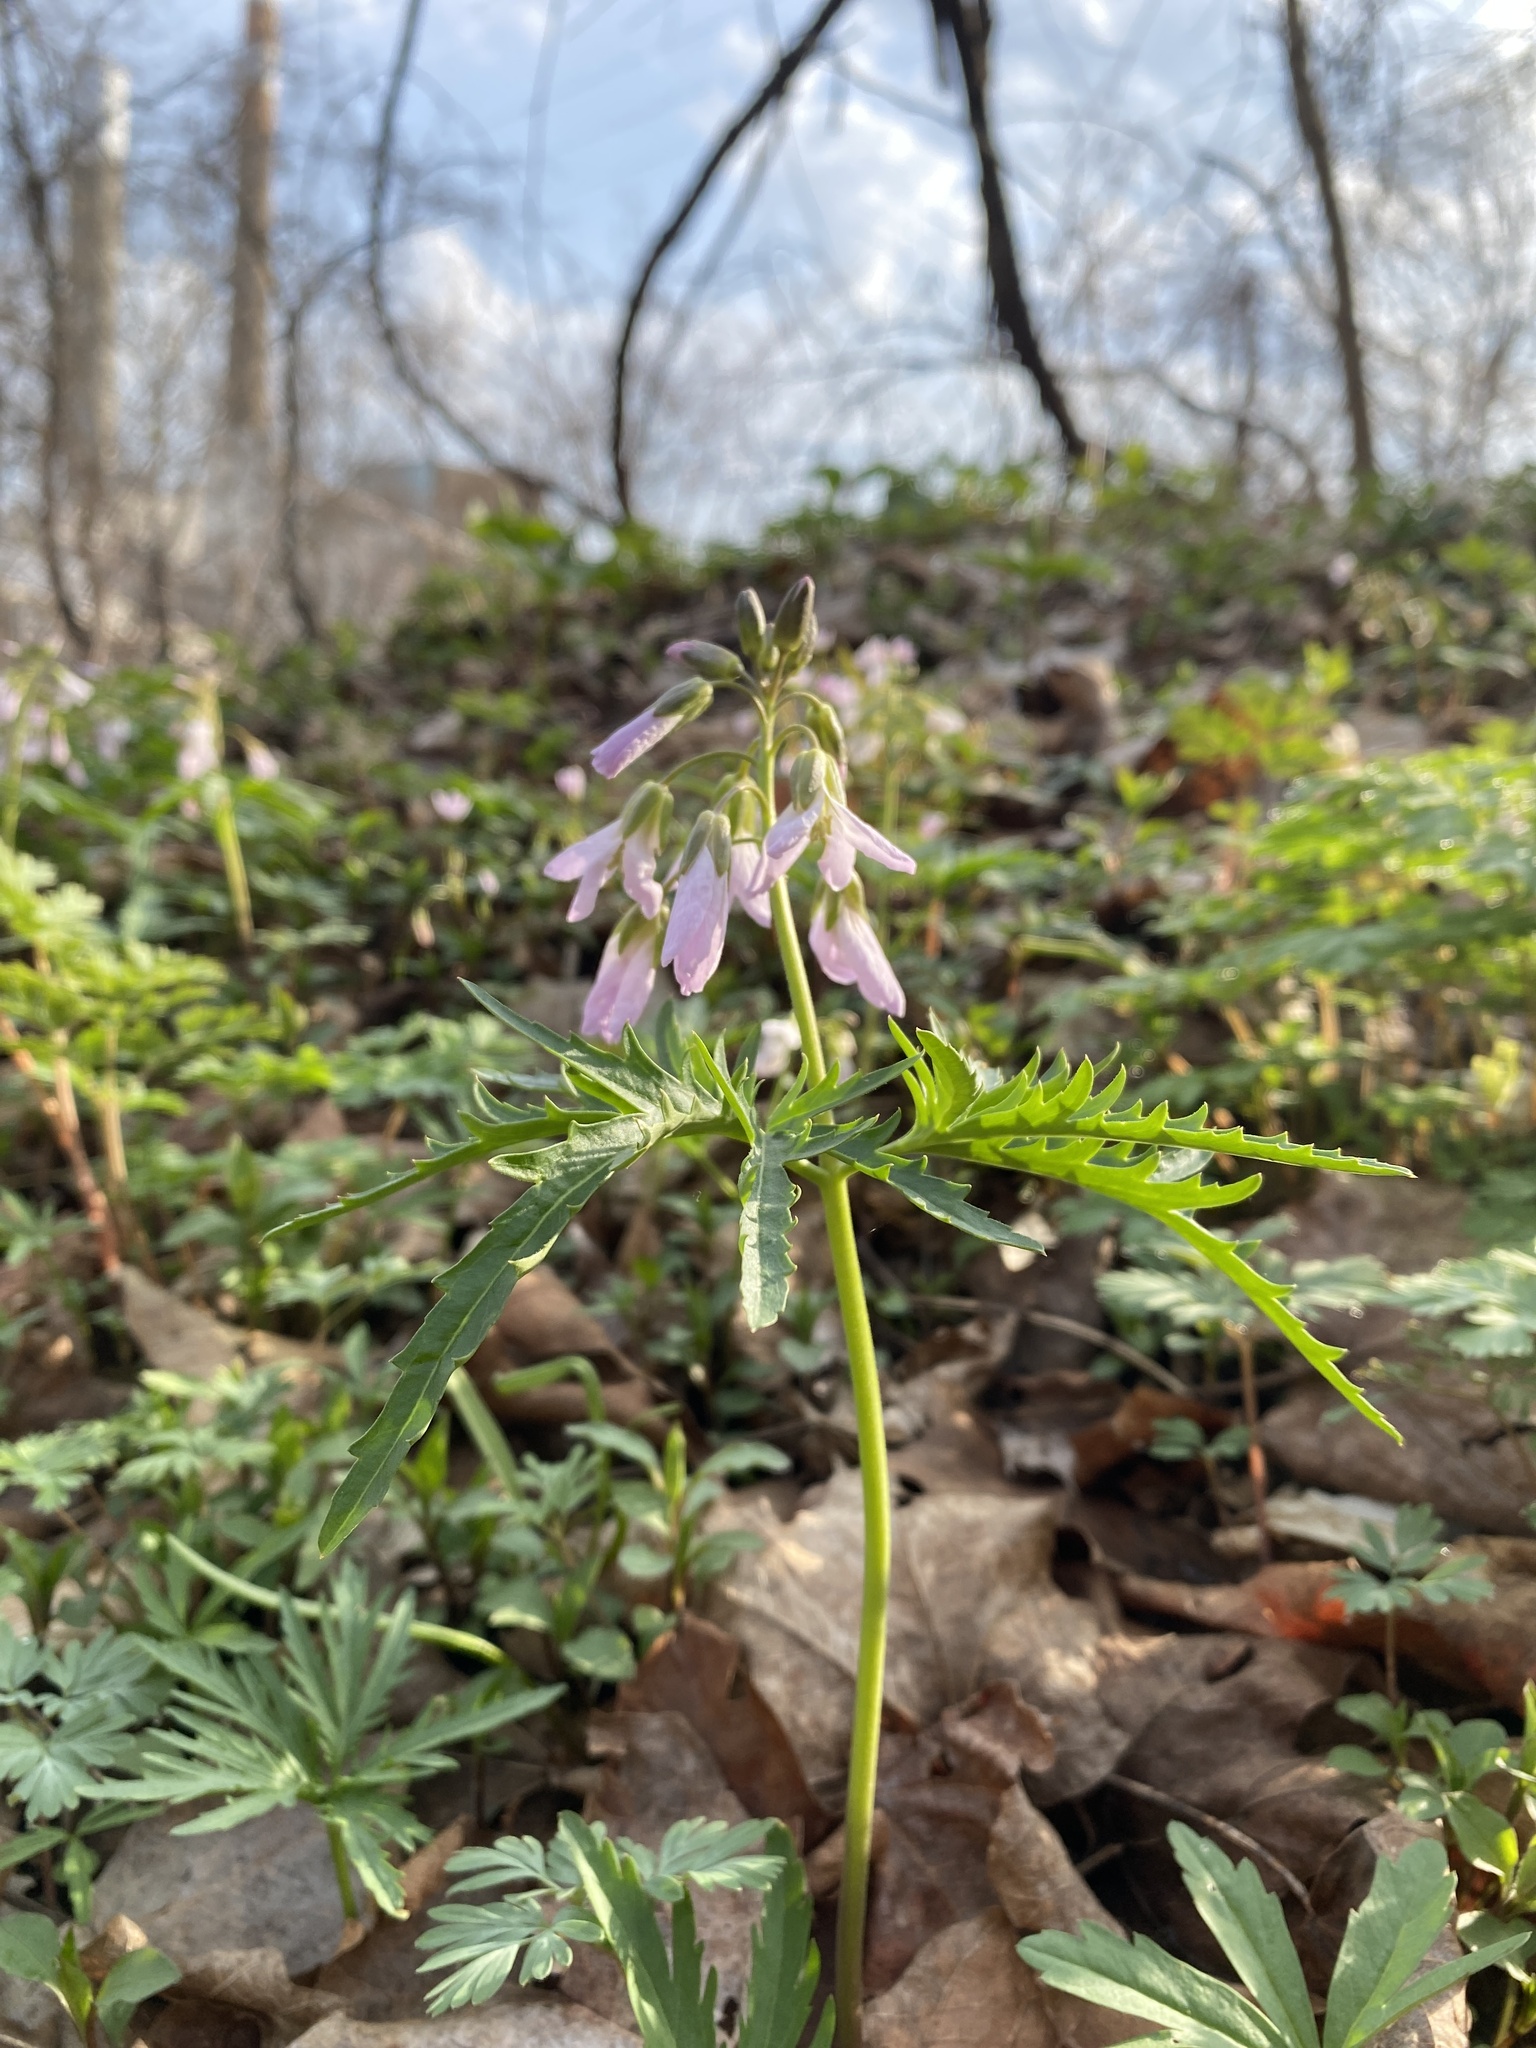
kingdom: Plantae
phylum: Tracheophyta
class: Magnoliopsida
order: Brassicales
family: Brassicaceae
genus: Cardamine
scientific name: Cardamine concatenata
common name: Cut-leaf toothcup
